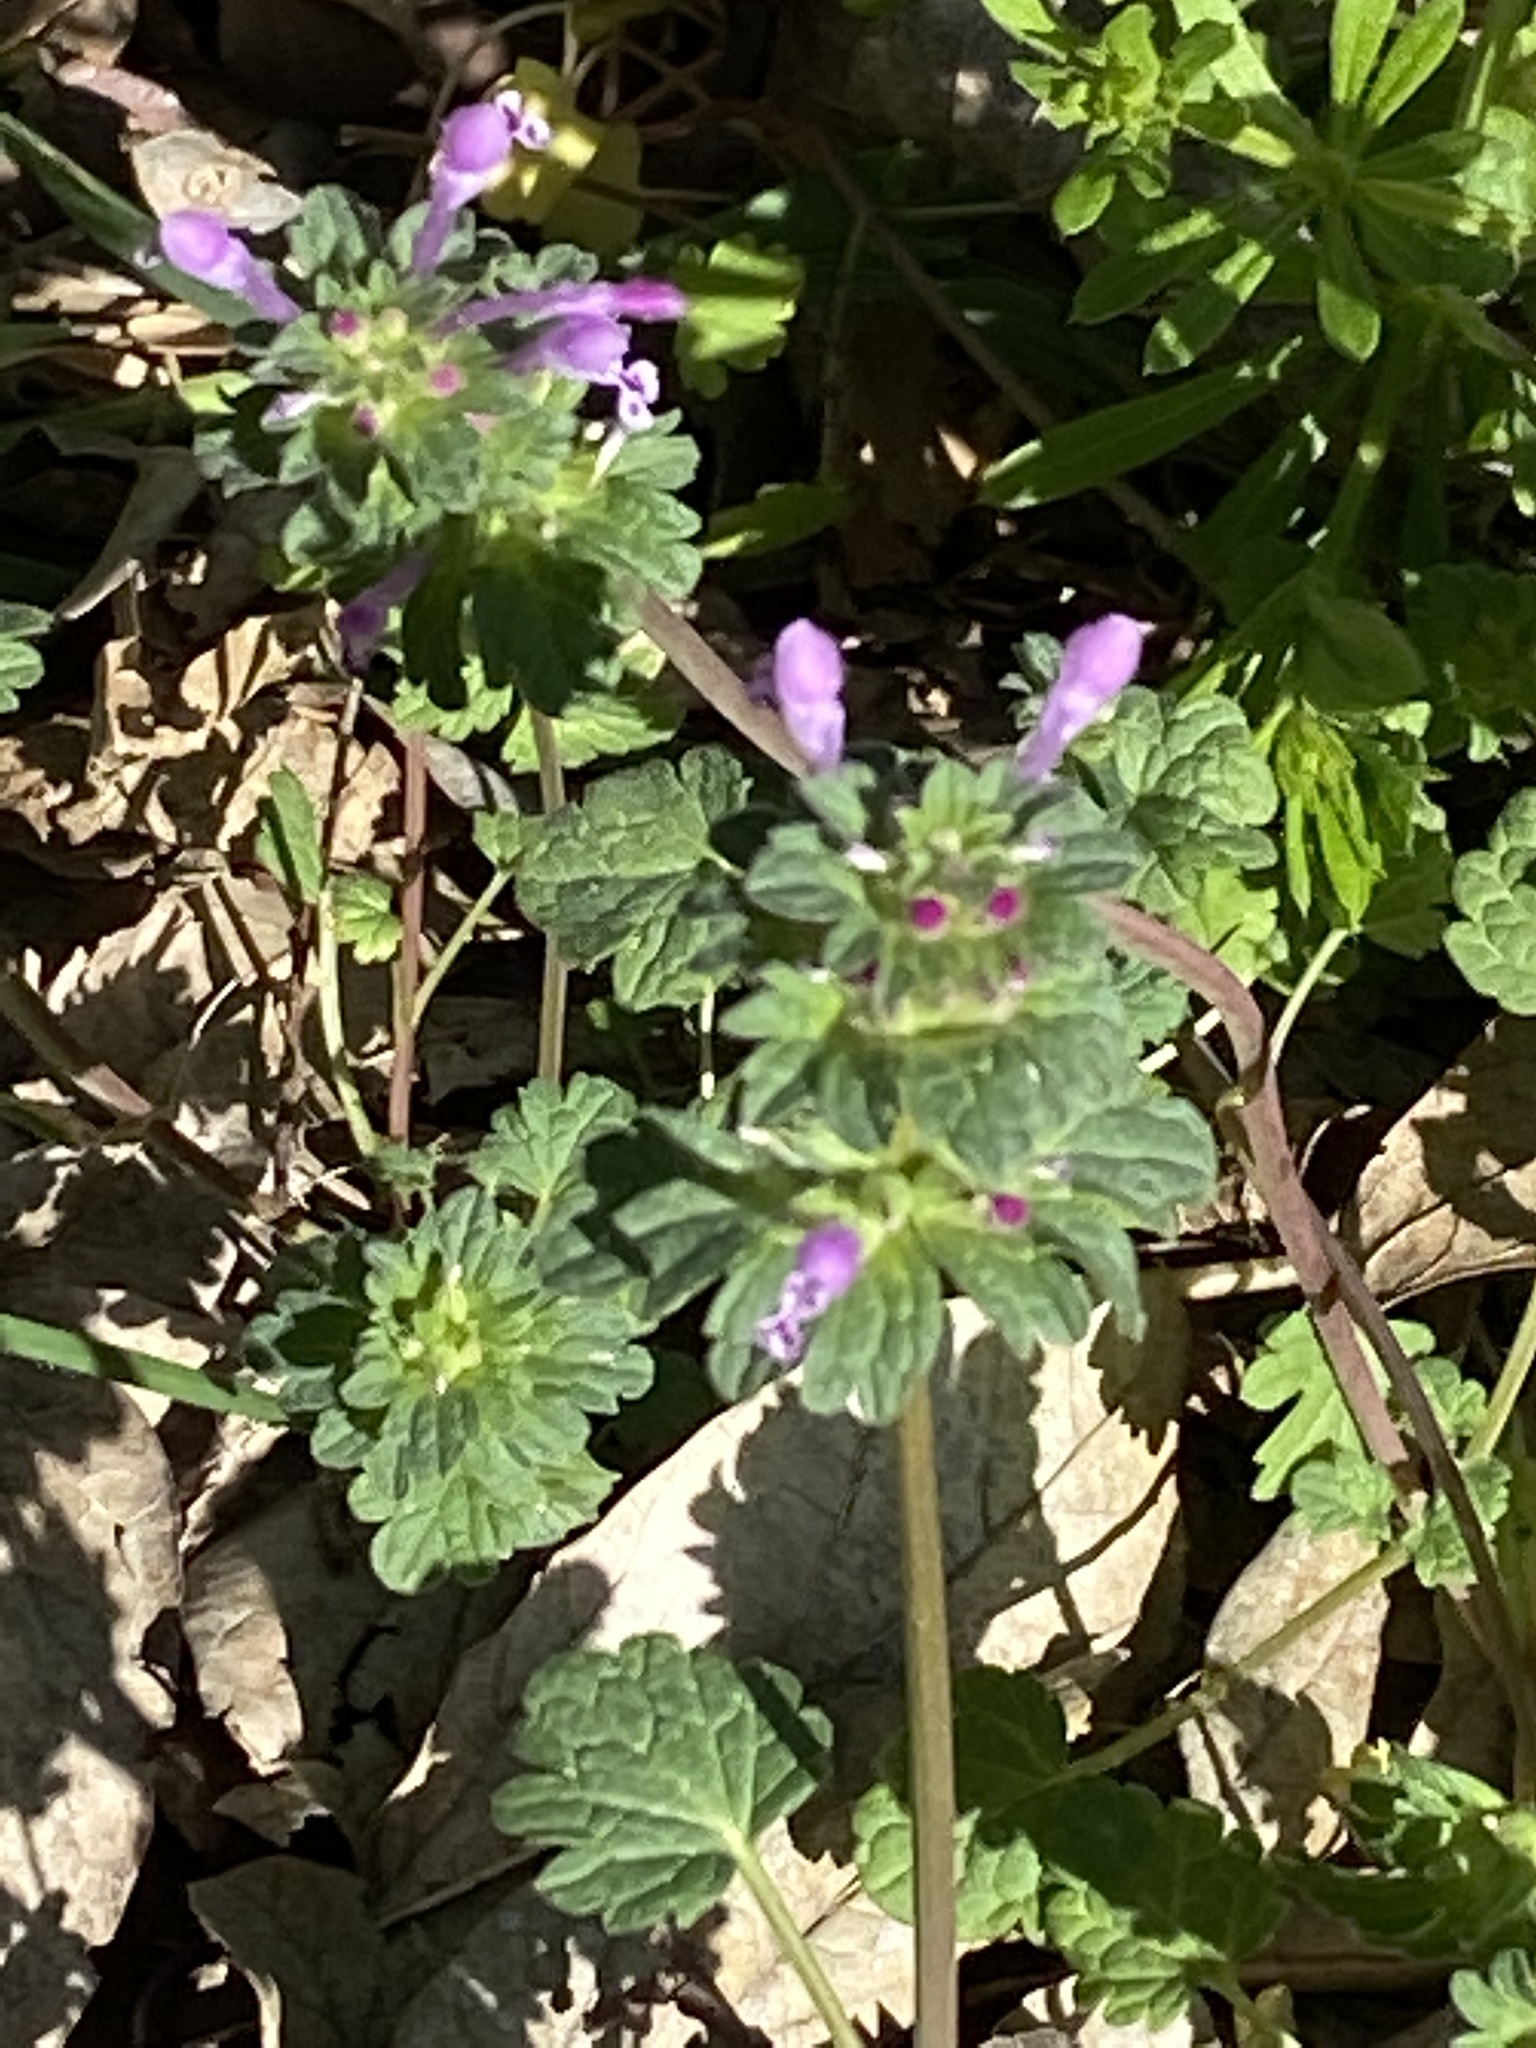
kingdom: Plantae
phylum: Tracheophyta
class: Magnoliopsida
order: Lamiales
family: Lamiaceae
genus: Lamium
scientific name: Lamium amplexicaule
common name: Henbit dead-nettle
